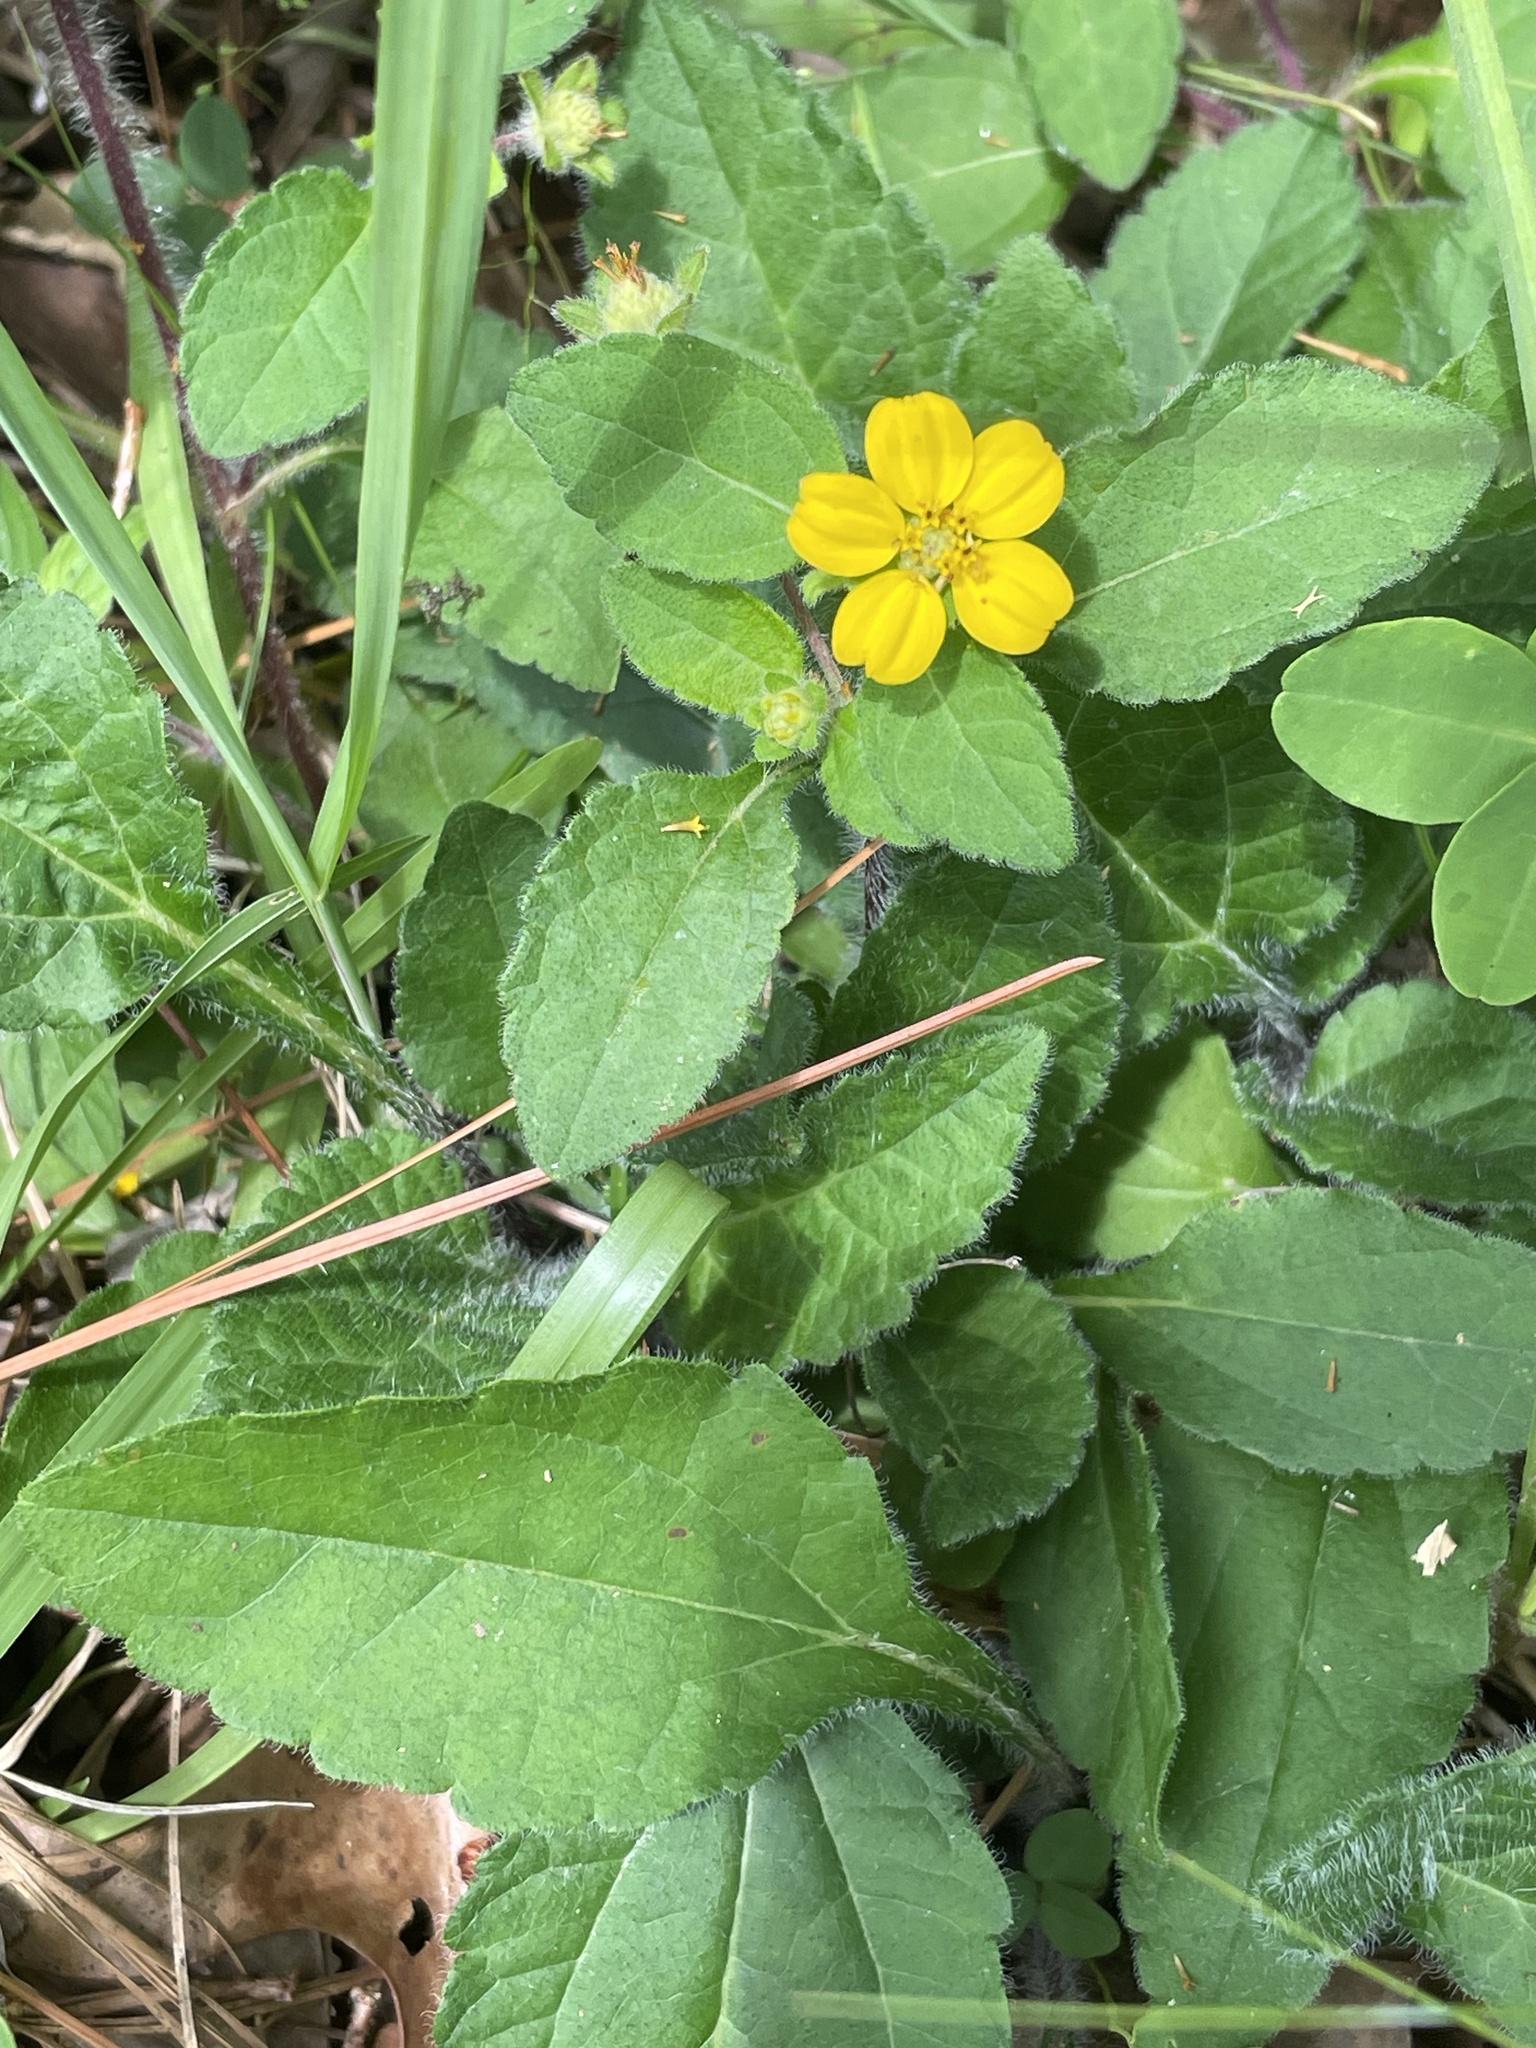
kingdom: Plantae
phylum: Tracheophyta
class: Magnoliopsida
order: Asterales
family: Asteraceae
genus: Chrysogonum
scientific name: Chrysogonum virginianum
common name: Golden-knee
